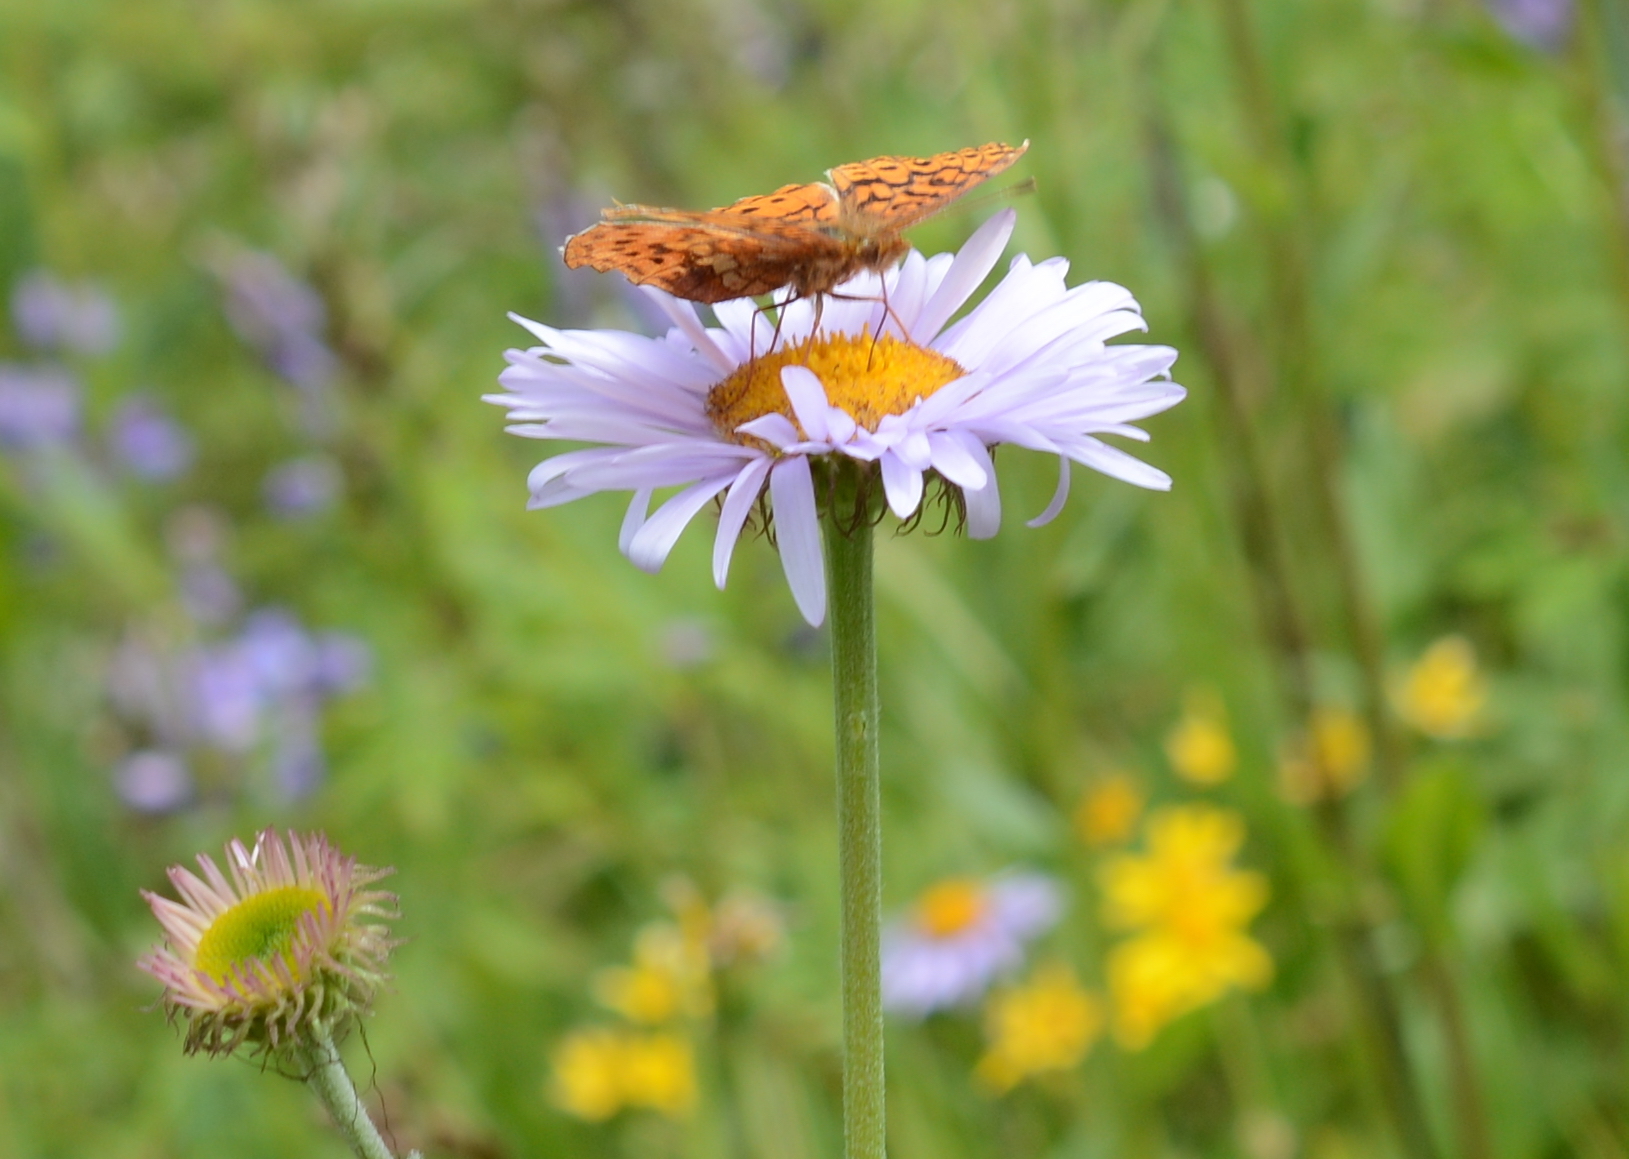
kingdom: Animalia
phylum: Arthropoda
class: Insecta
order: Lepidoptera
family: Nymphalidae
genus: Boloria
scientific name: Boloria epithore
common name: Pacific fritillary
